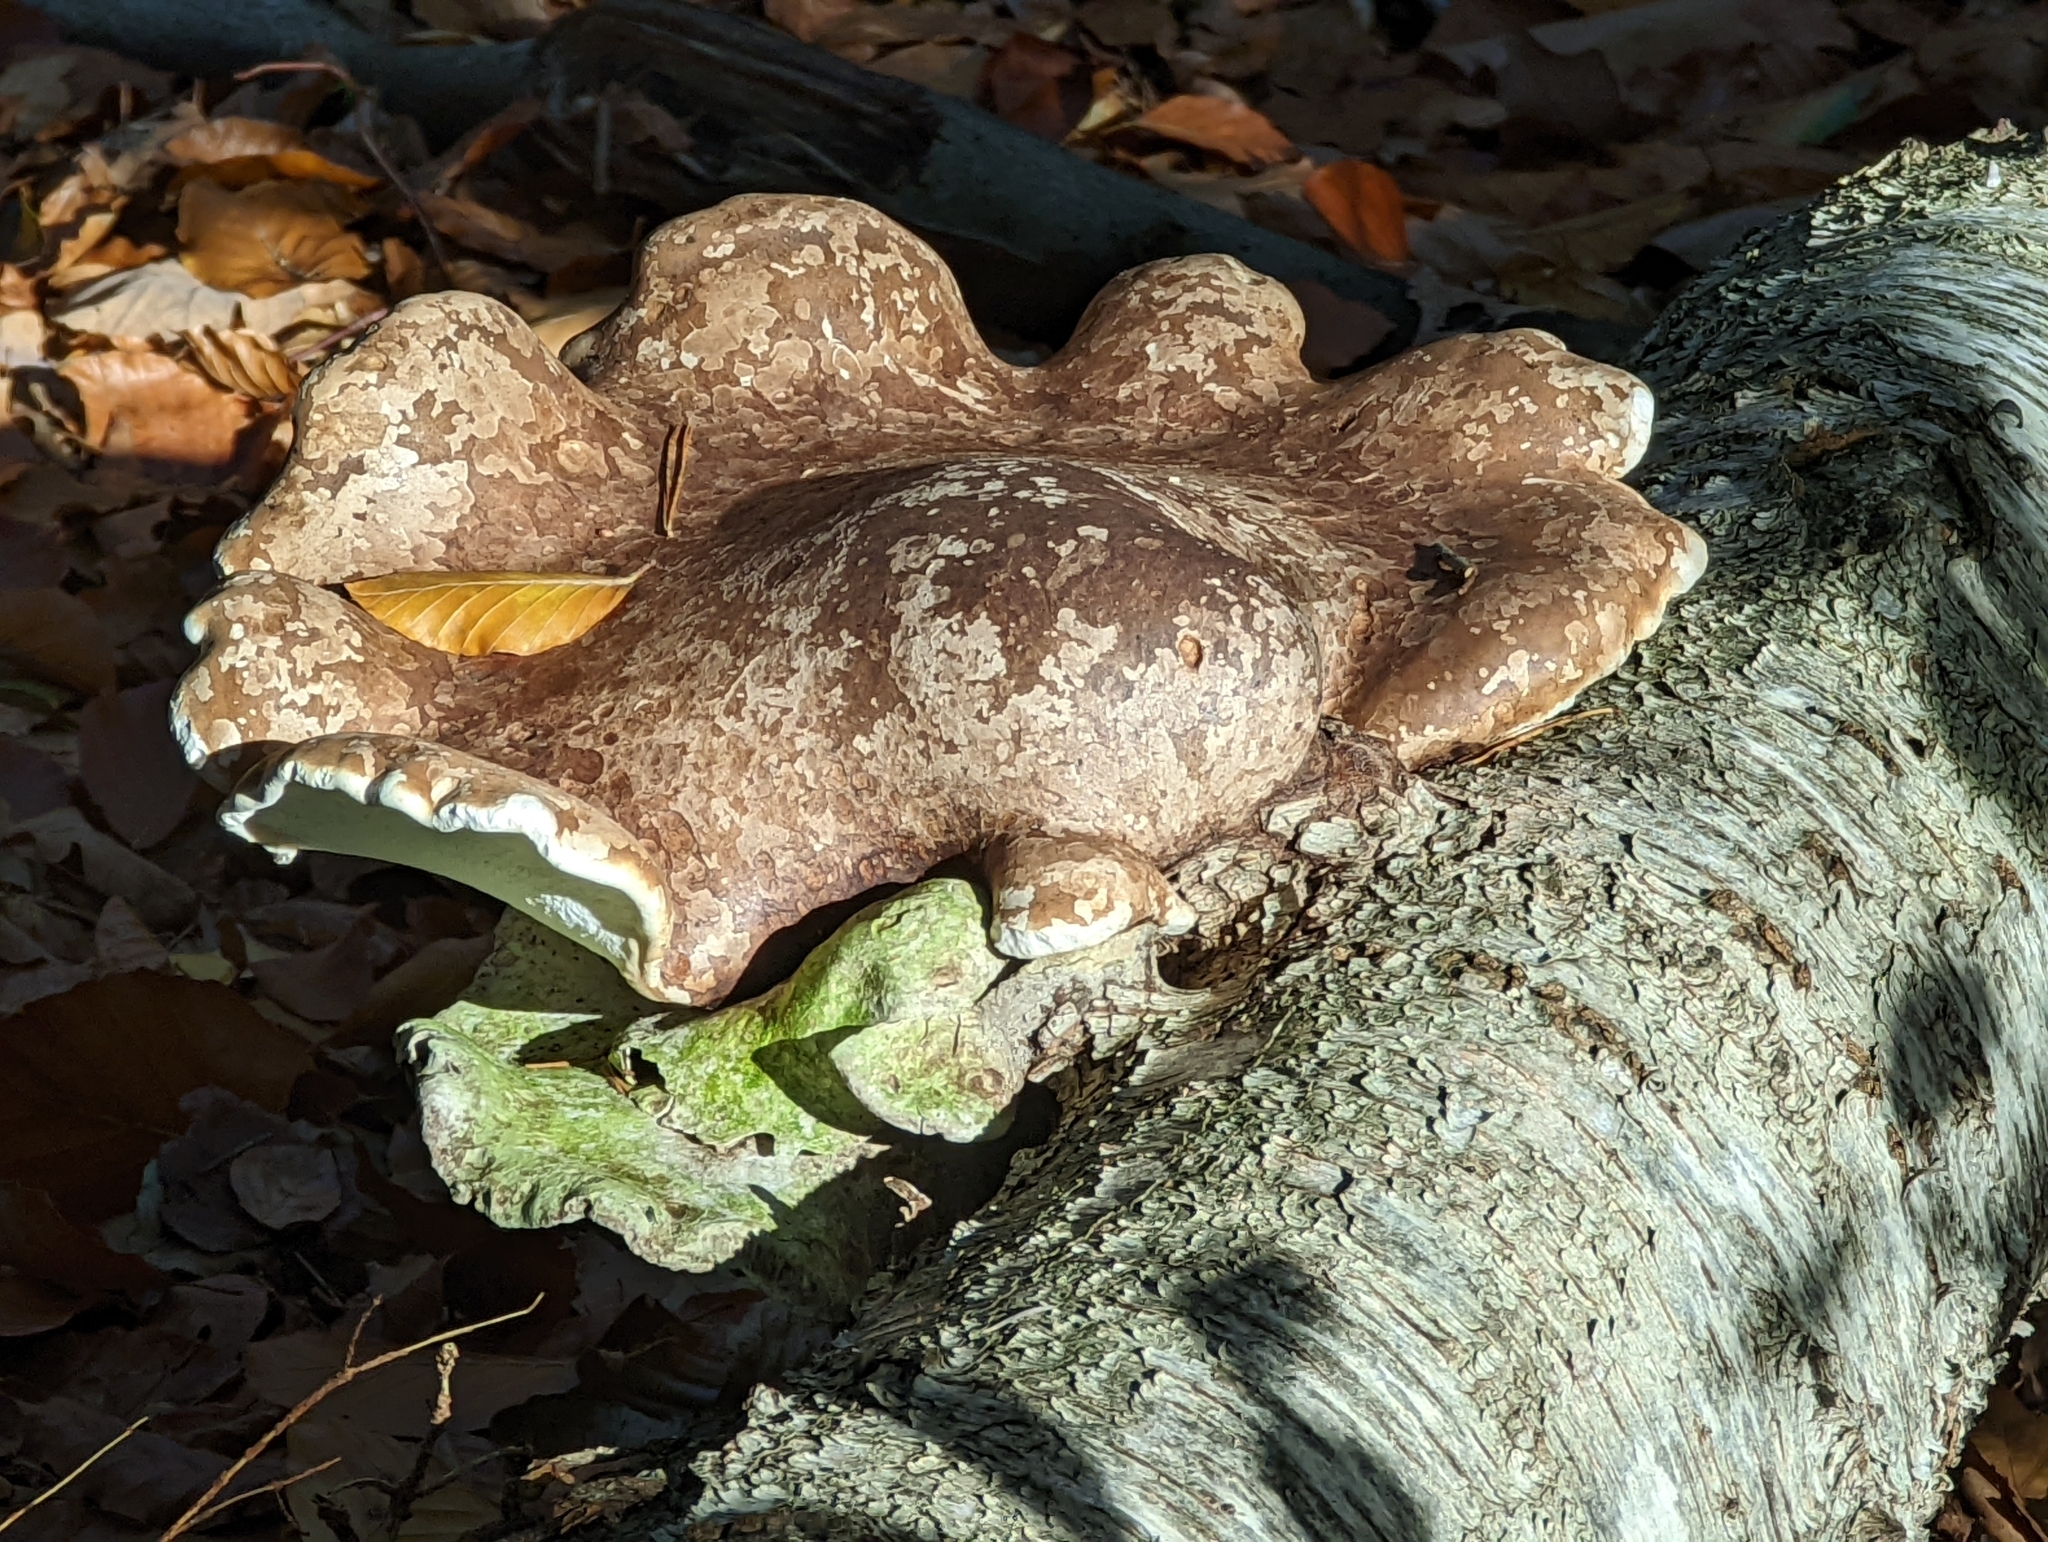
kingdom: Fungi
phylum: Basidiomycota
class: Agaricomycetes
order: Polyporales
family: Fomitopsidaceae
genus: Fomitopsis
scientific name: Fomitopsis betulina
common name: Birch polypore
